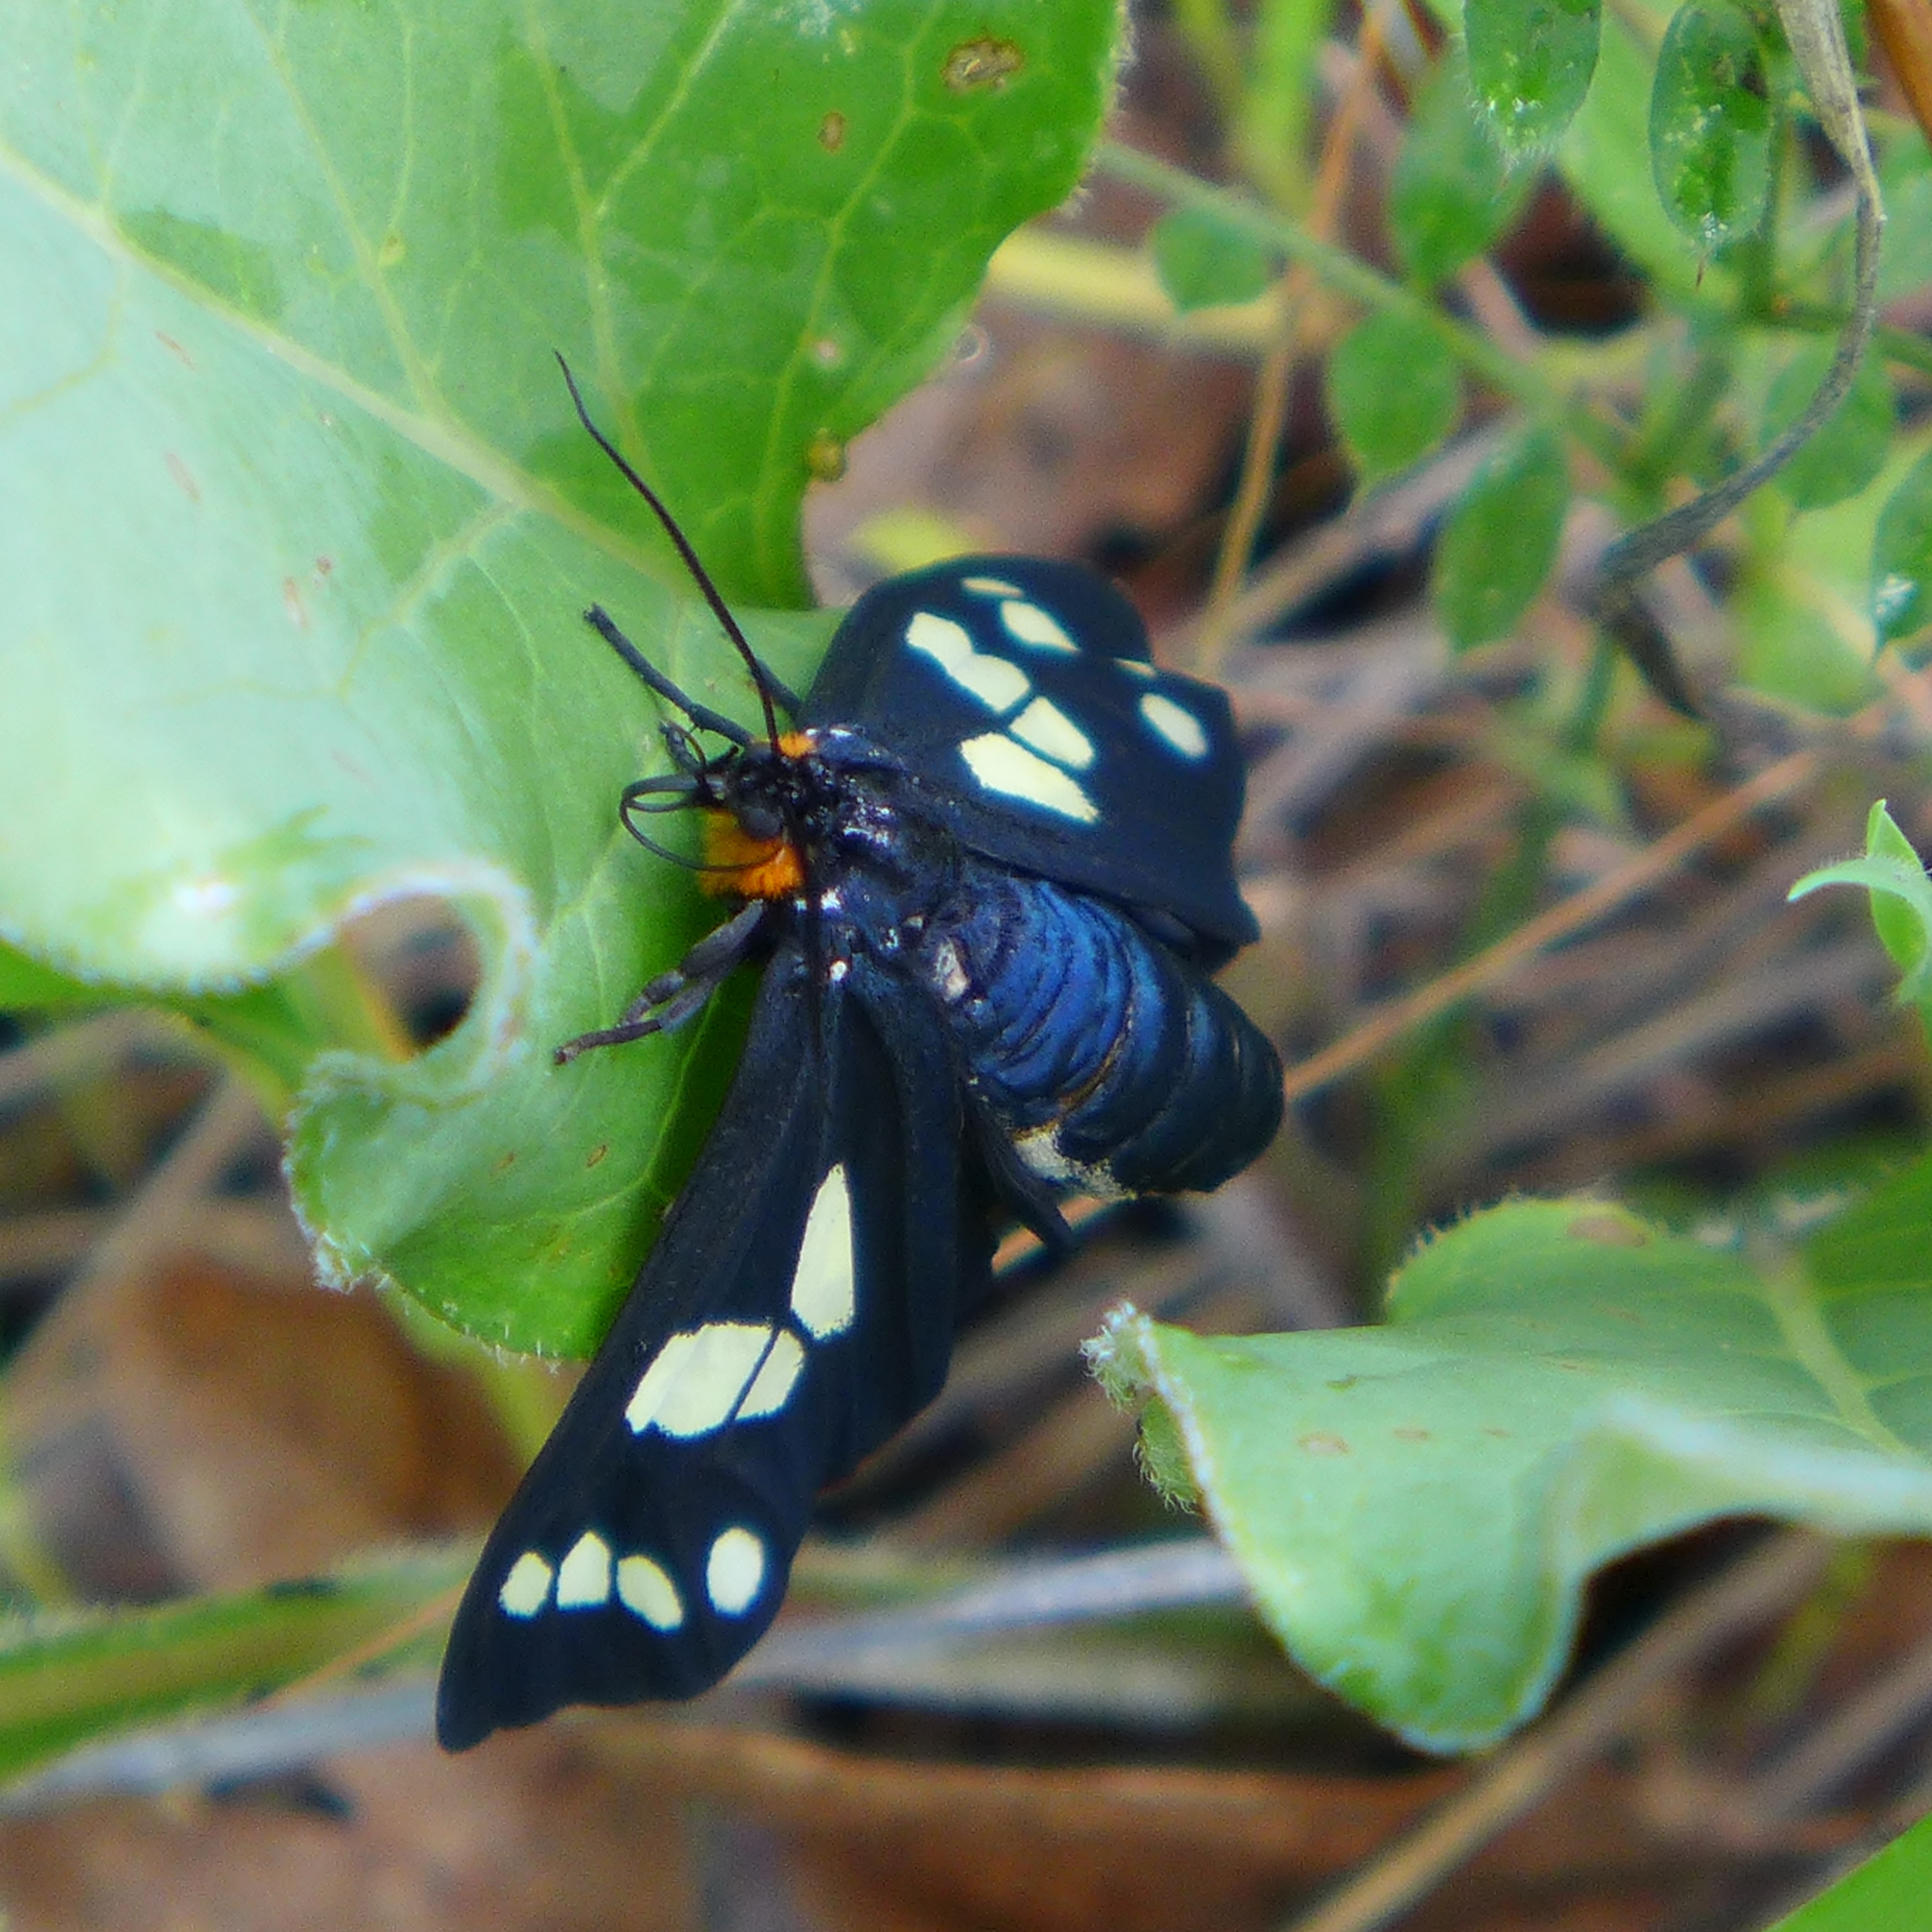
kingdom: Animalia
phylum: Arthropoda
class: Insecta
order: Lepidoptera
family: Erebidae
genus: Gnophaela
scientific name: Gnophaela latipennis
